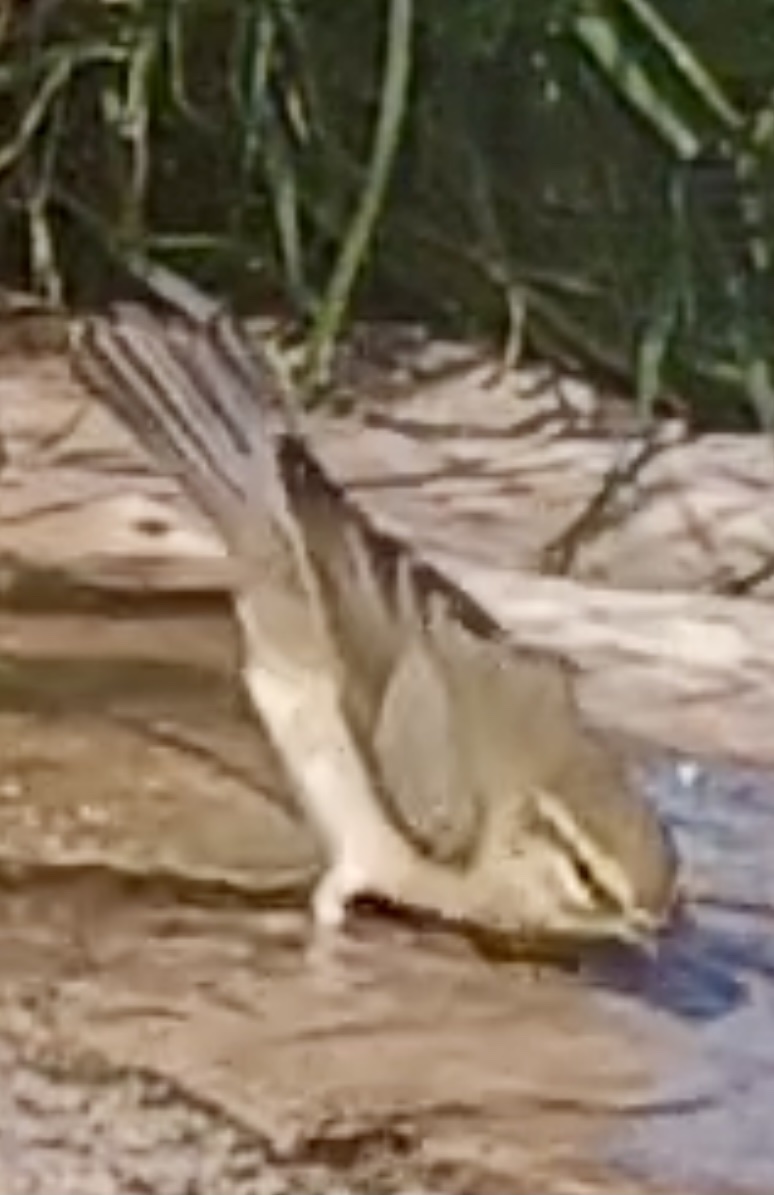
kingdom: Animalia
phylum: Chordata
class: Aves
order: Passeriformes
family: Phylloscopidae
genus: Phylloscopus
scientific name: Phylloscopus trochilus
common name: Willow warbler
